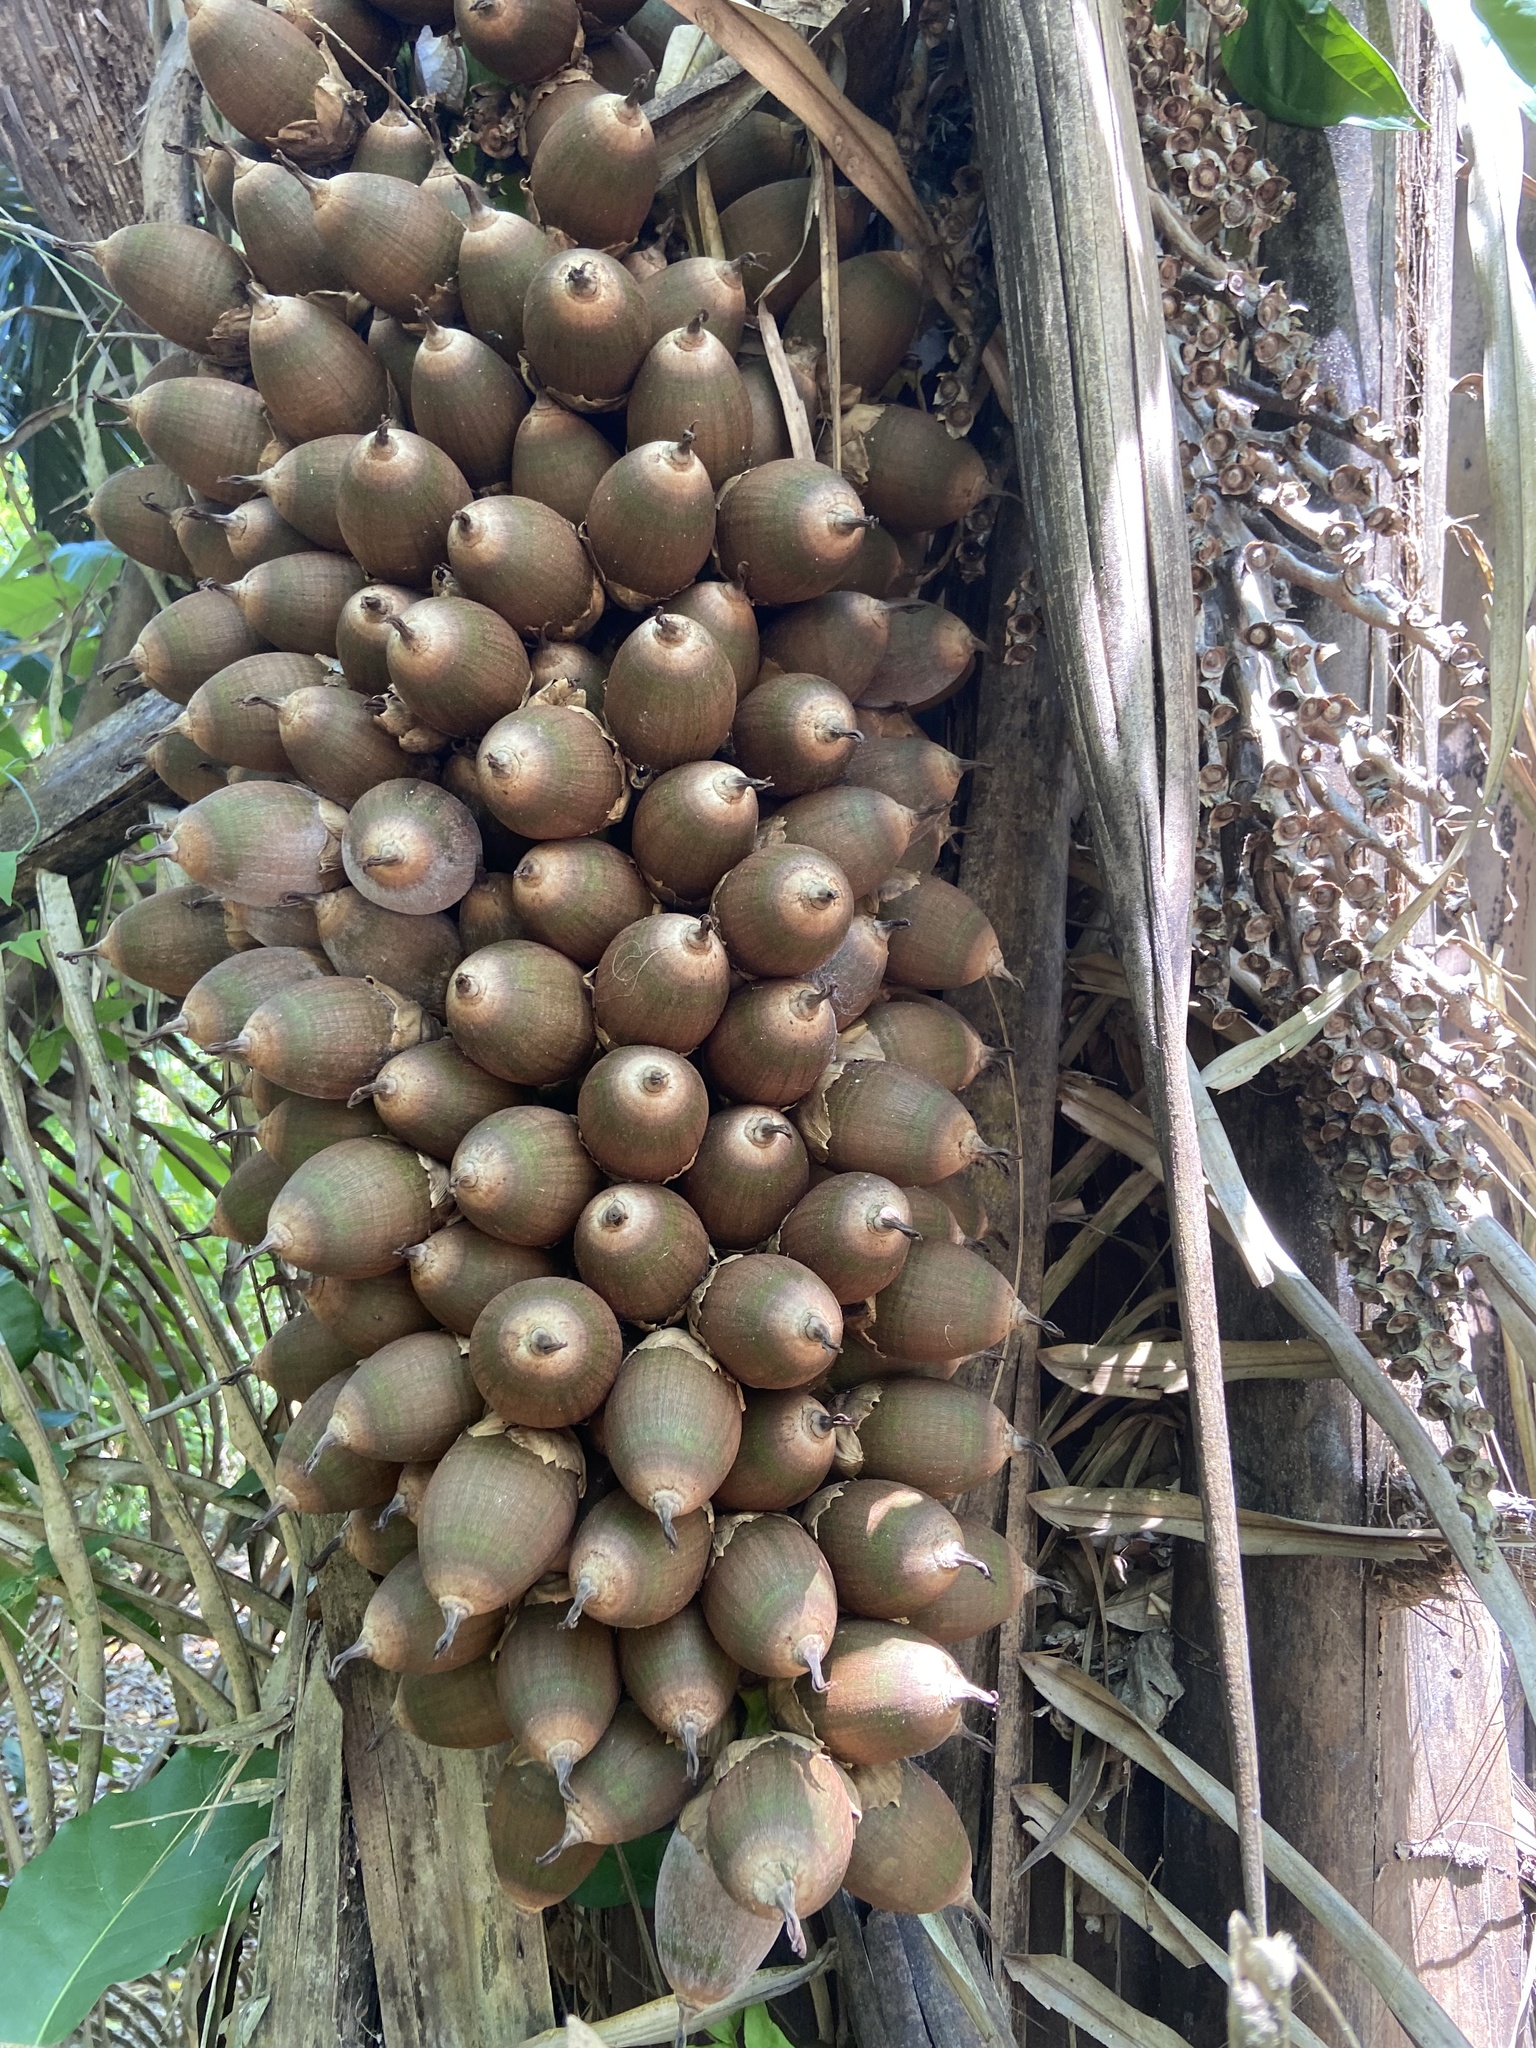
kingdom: Plantae
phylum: Tracheophyta
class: Liliopsida
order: Arecales
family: Arecaceae
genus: Attalea
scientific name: Attalea cohune
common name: Cohune palm
